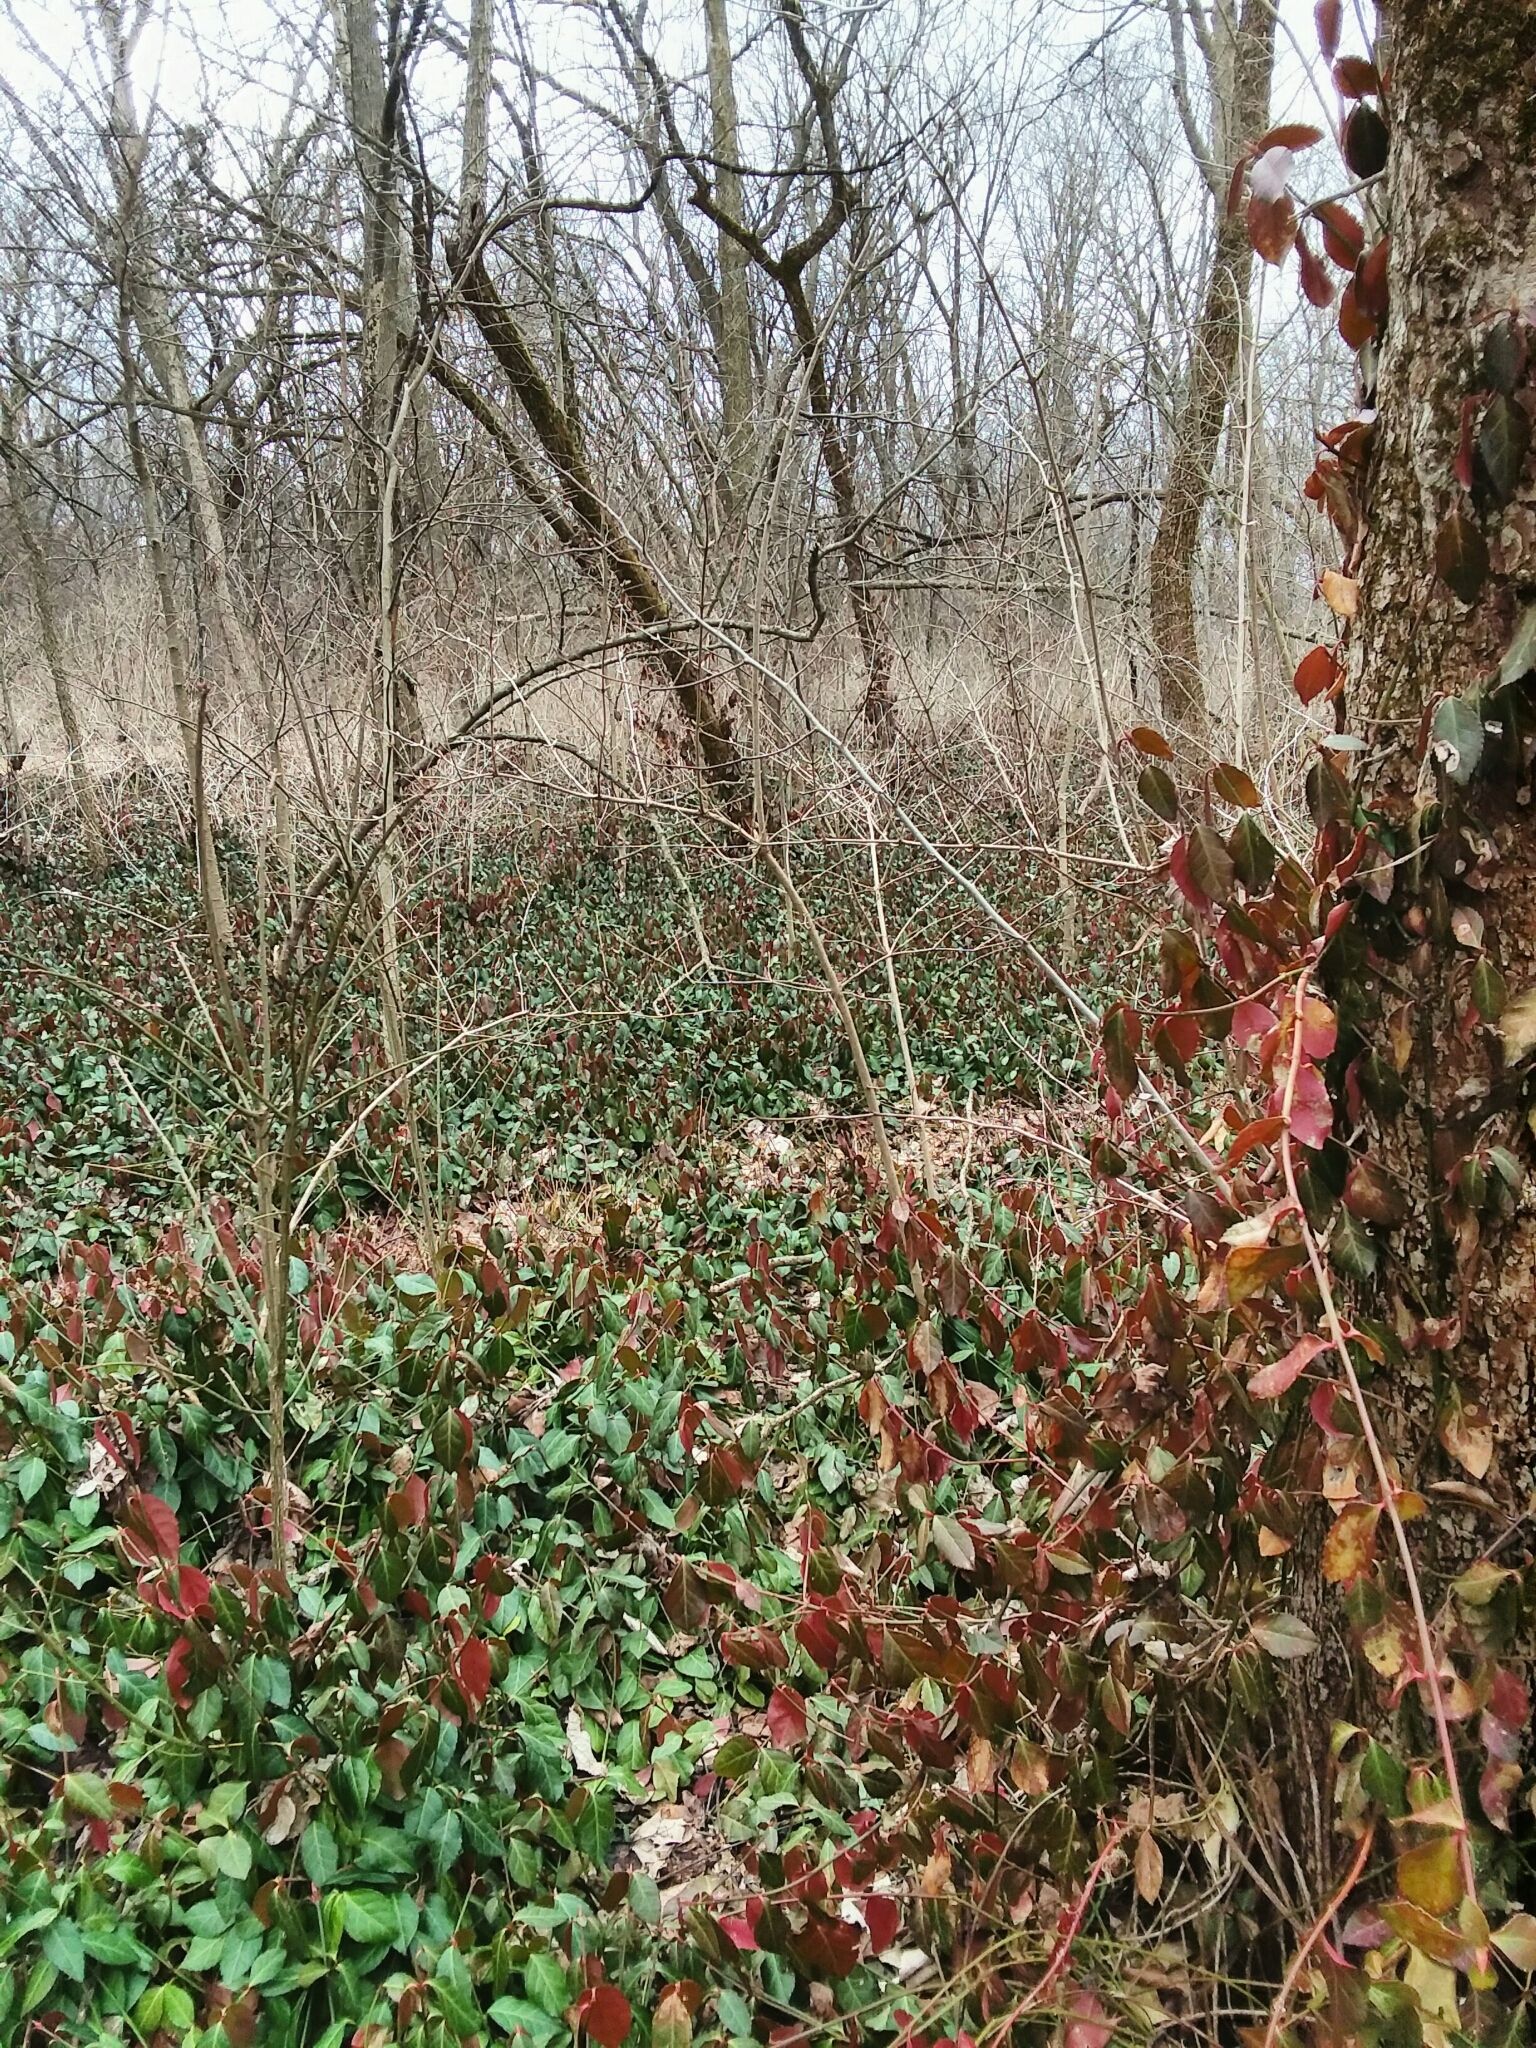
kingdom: Plantae
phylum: Tracheophyta
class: Magnoliopsida
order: Celastrales
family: Celastraceae
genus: Euonymus
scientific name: Euonymus fortunei
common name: Climbing euonymus
